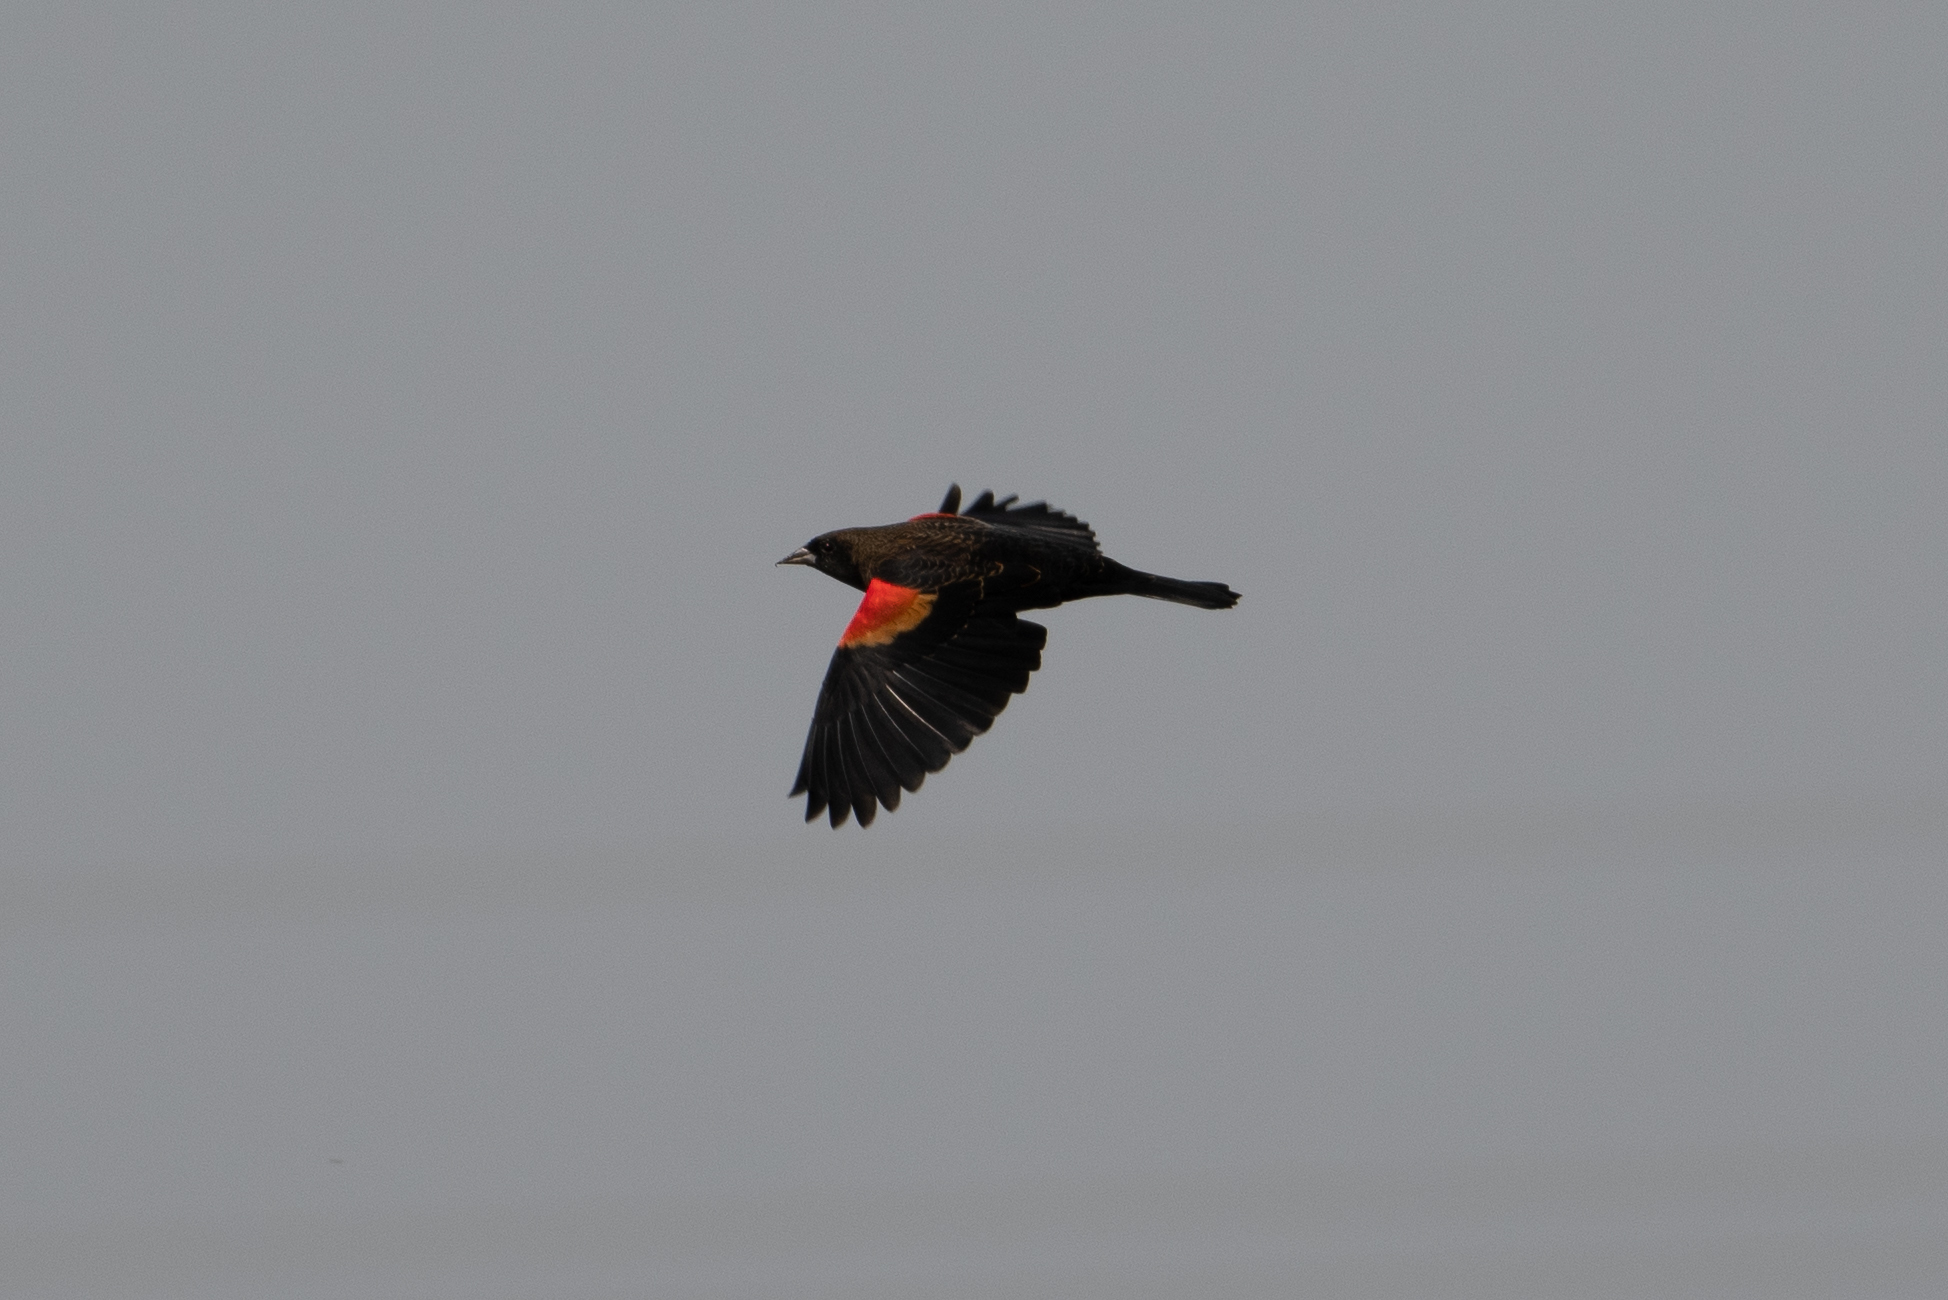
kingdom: Animalia
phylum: Chordata
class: Aves
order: Passeriformes
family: Icteridae
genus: Agelaius
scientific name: Agelaius phoeniceus
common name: Red-winged blackbird
